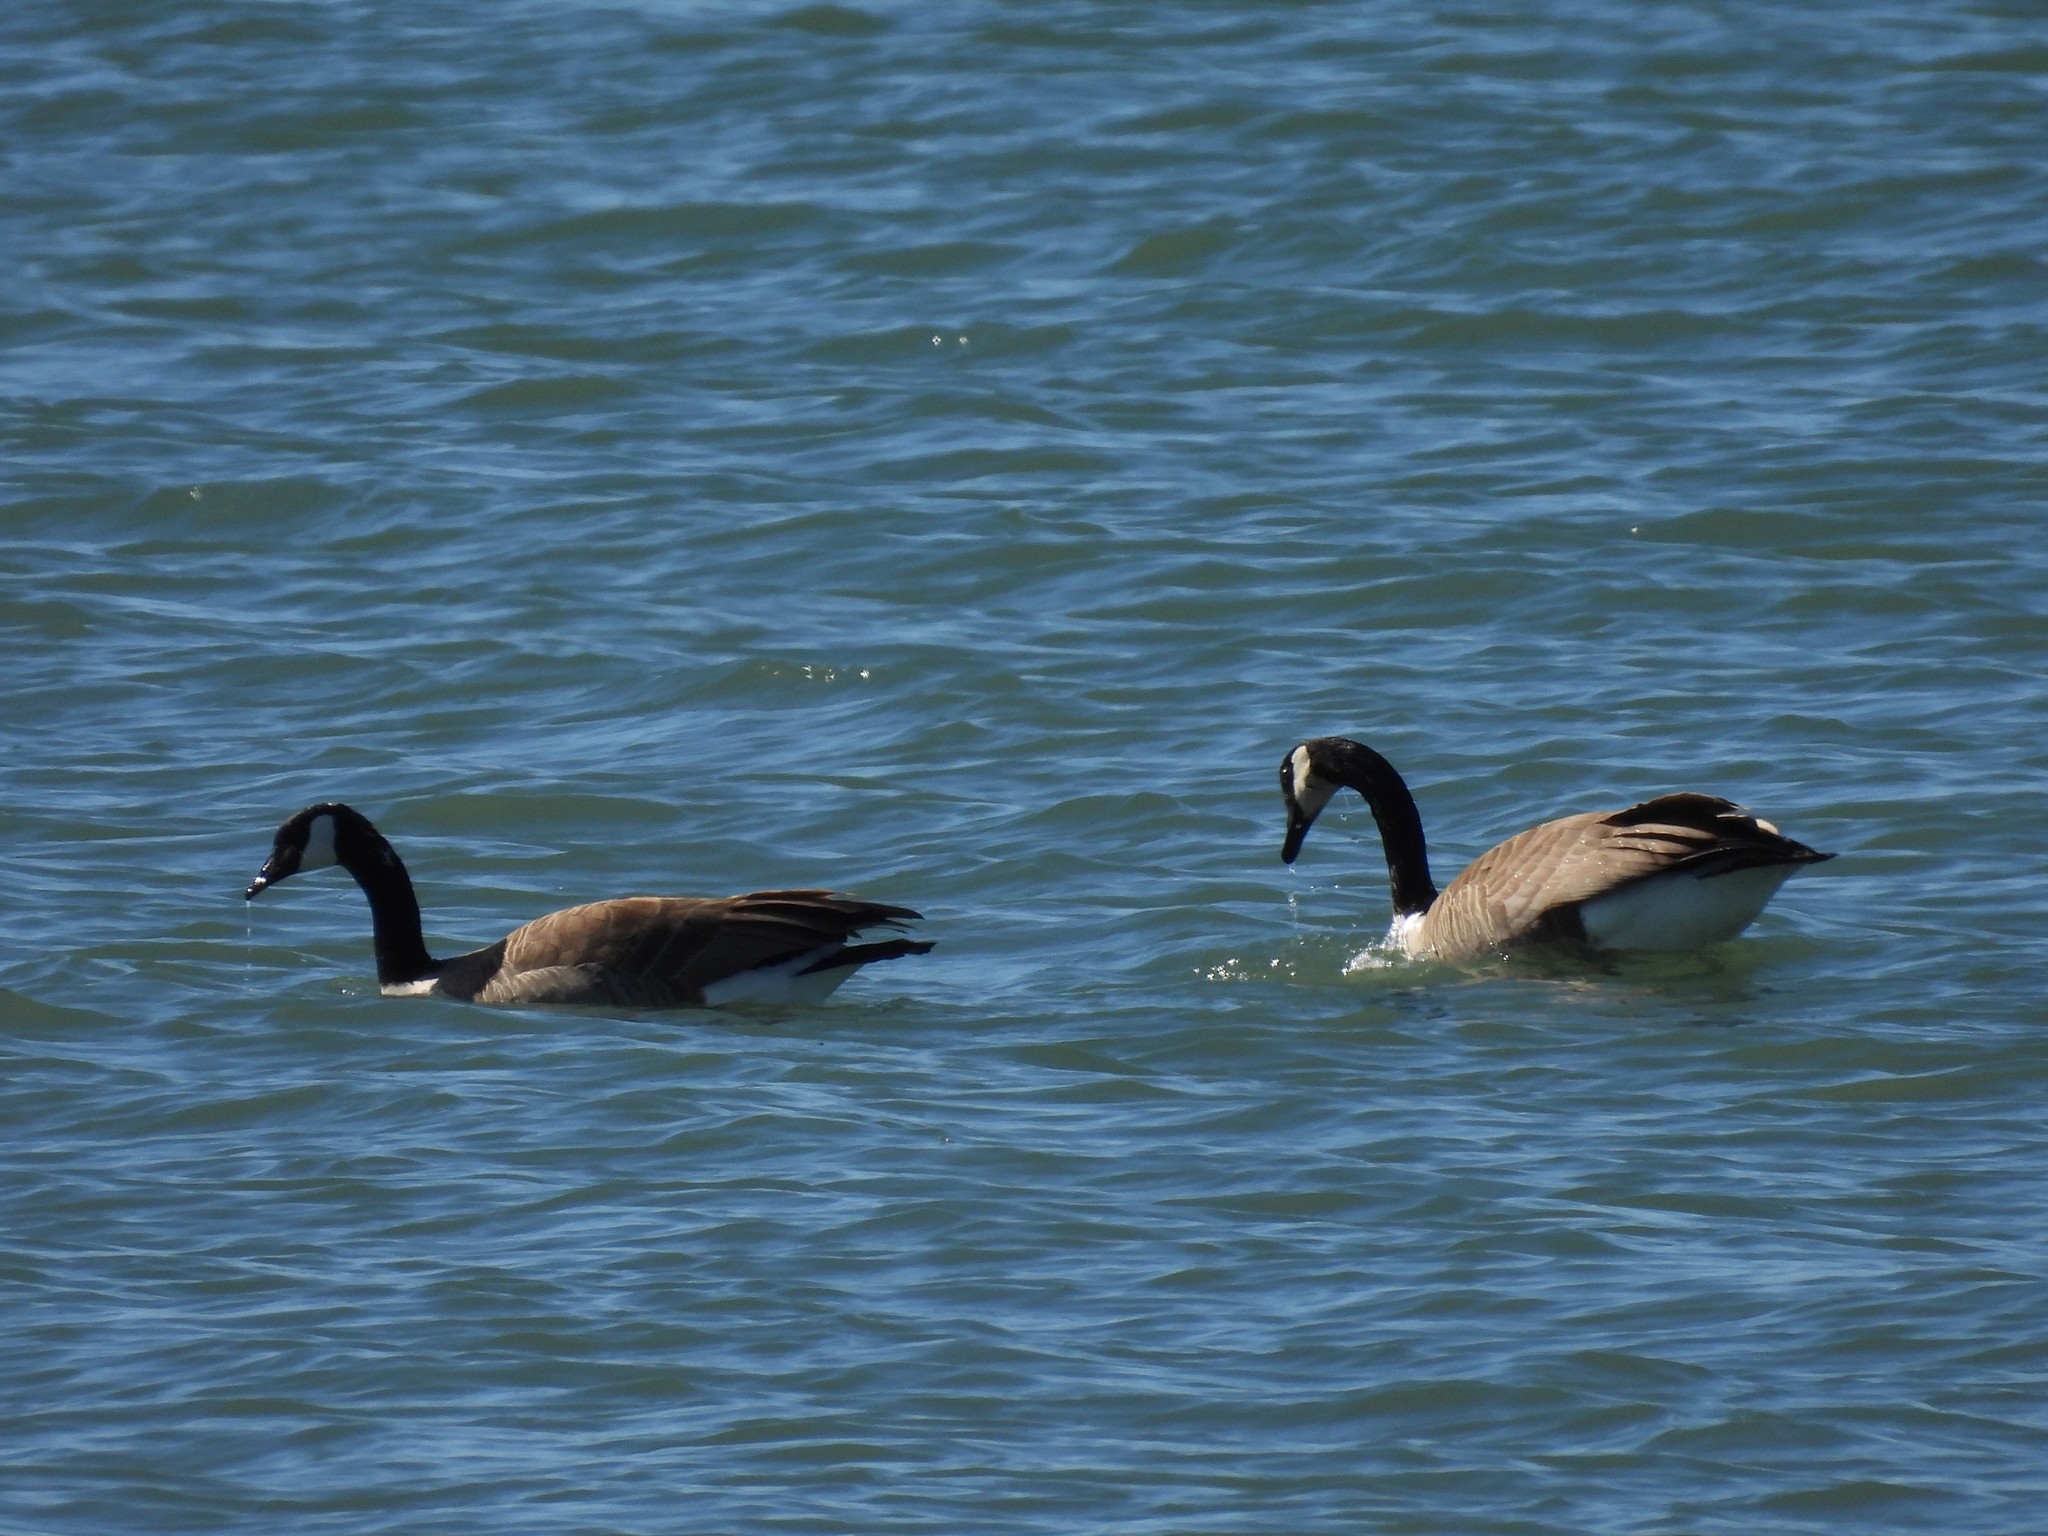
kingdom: Animalia
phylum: Chordata
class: Aves
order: Anseriformes
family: Anatidae
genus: Branta
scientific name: Branta canadensis
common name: Canada goose
